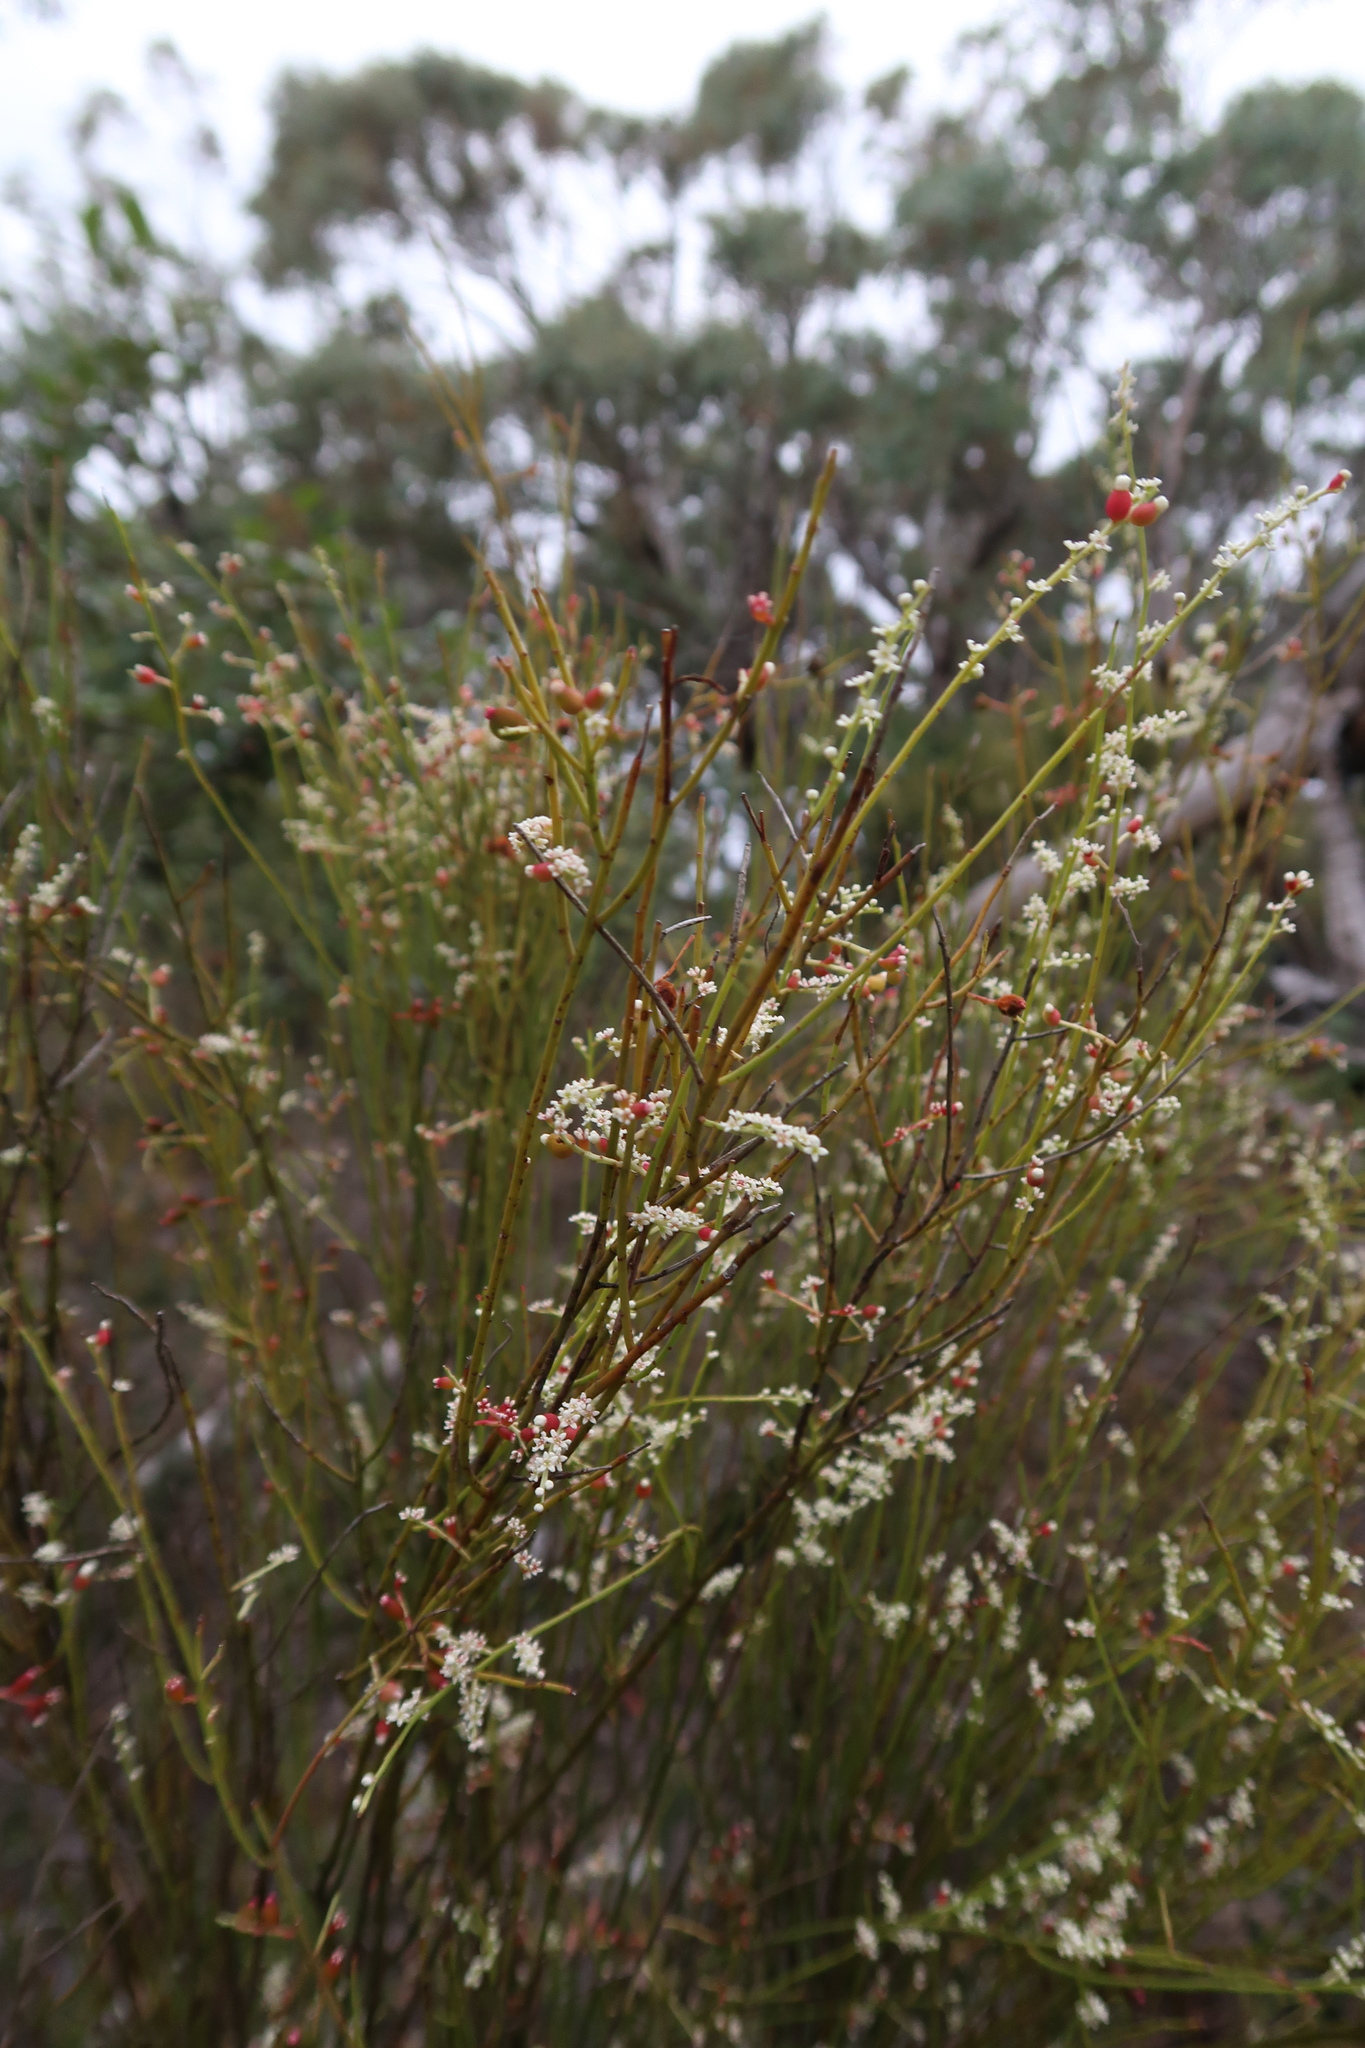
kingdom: Plantae
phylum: Tracheophyta
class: Magnoliopsida
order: Santalales
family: Amphorogynaceae
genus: Leptomeria
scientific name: Leptomeria drupacea
